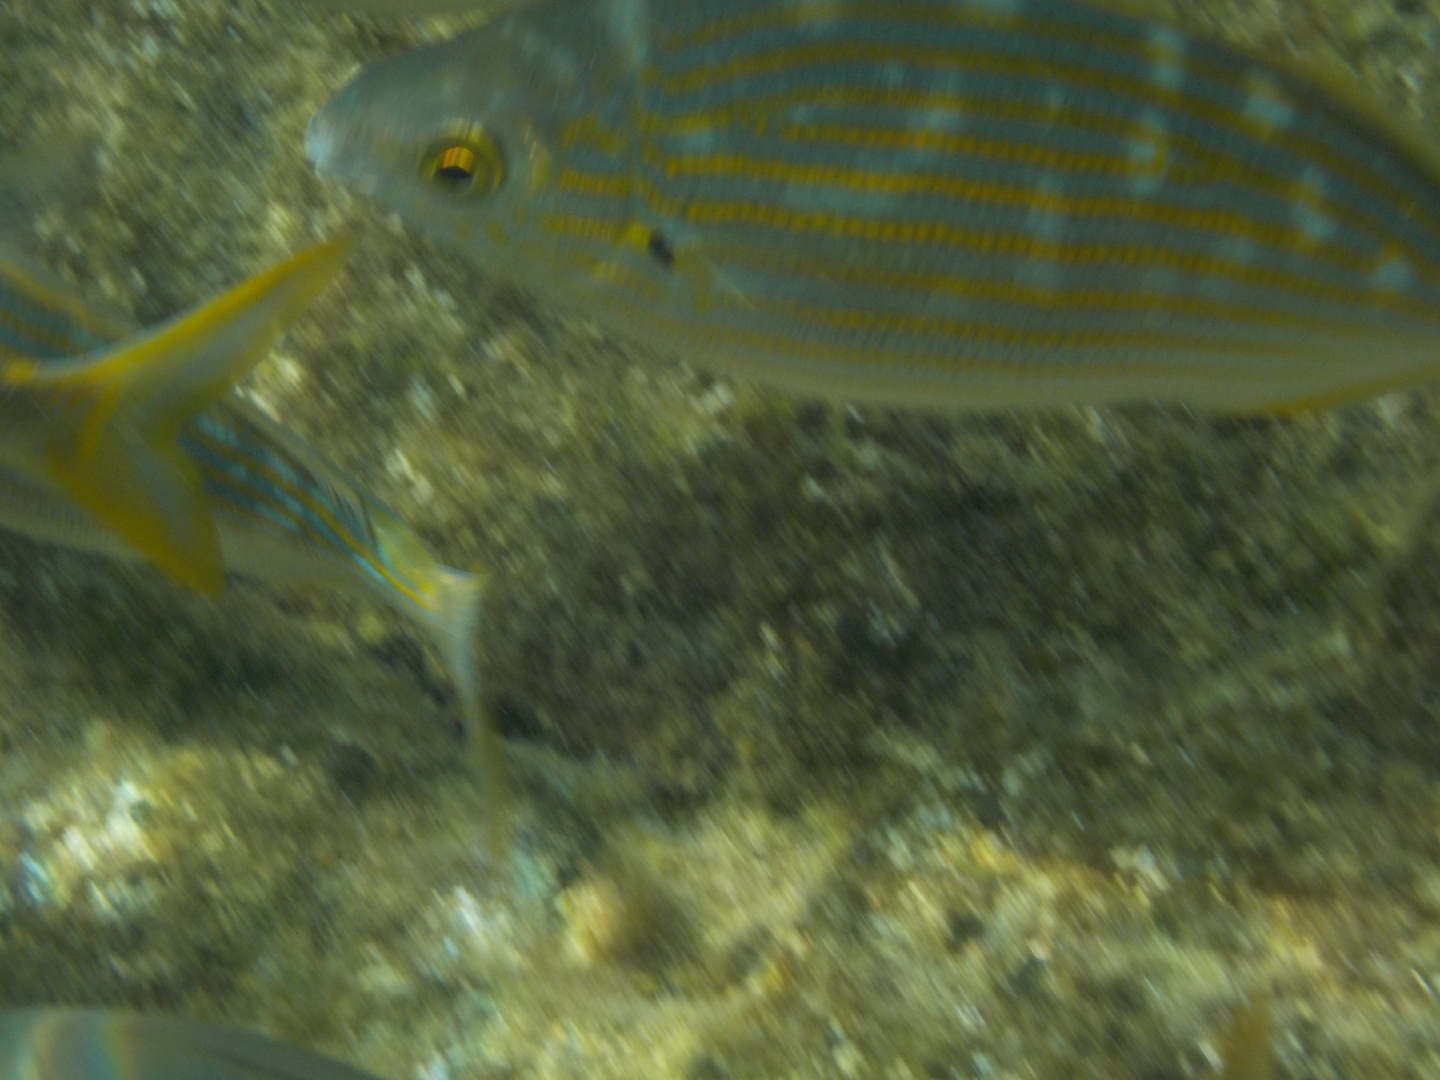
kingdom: Animalia
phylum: Chordata
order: Perciformes
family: Sparidae
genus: Sarpa
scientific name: Sarpa salpa
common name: Salema
